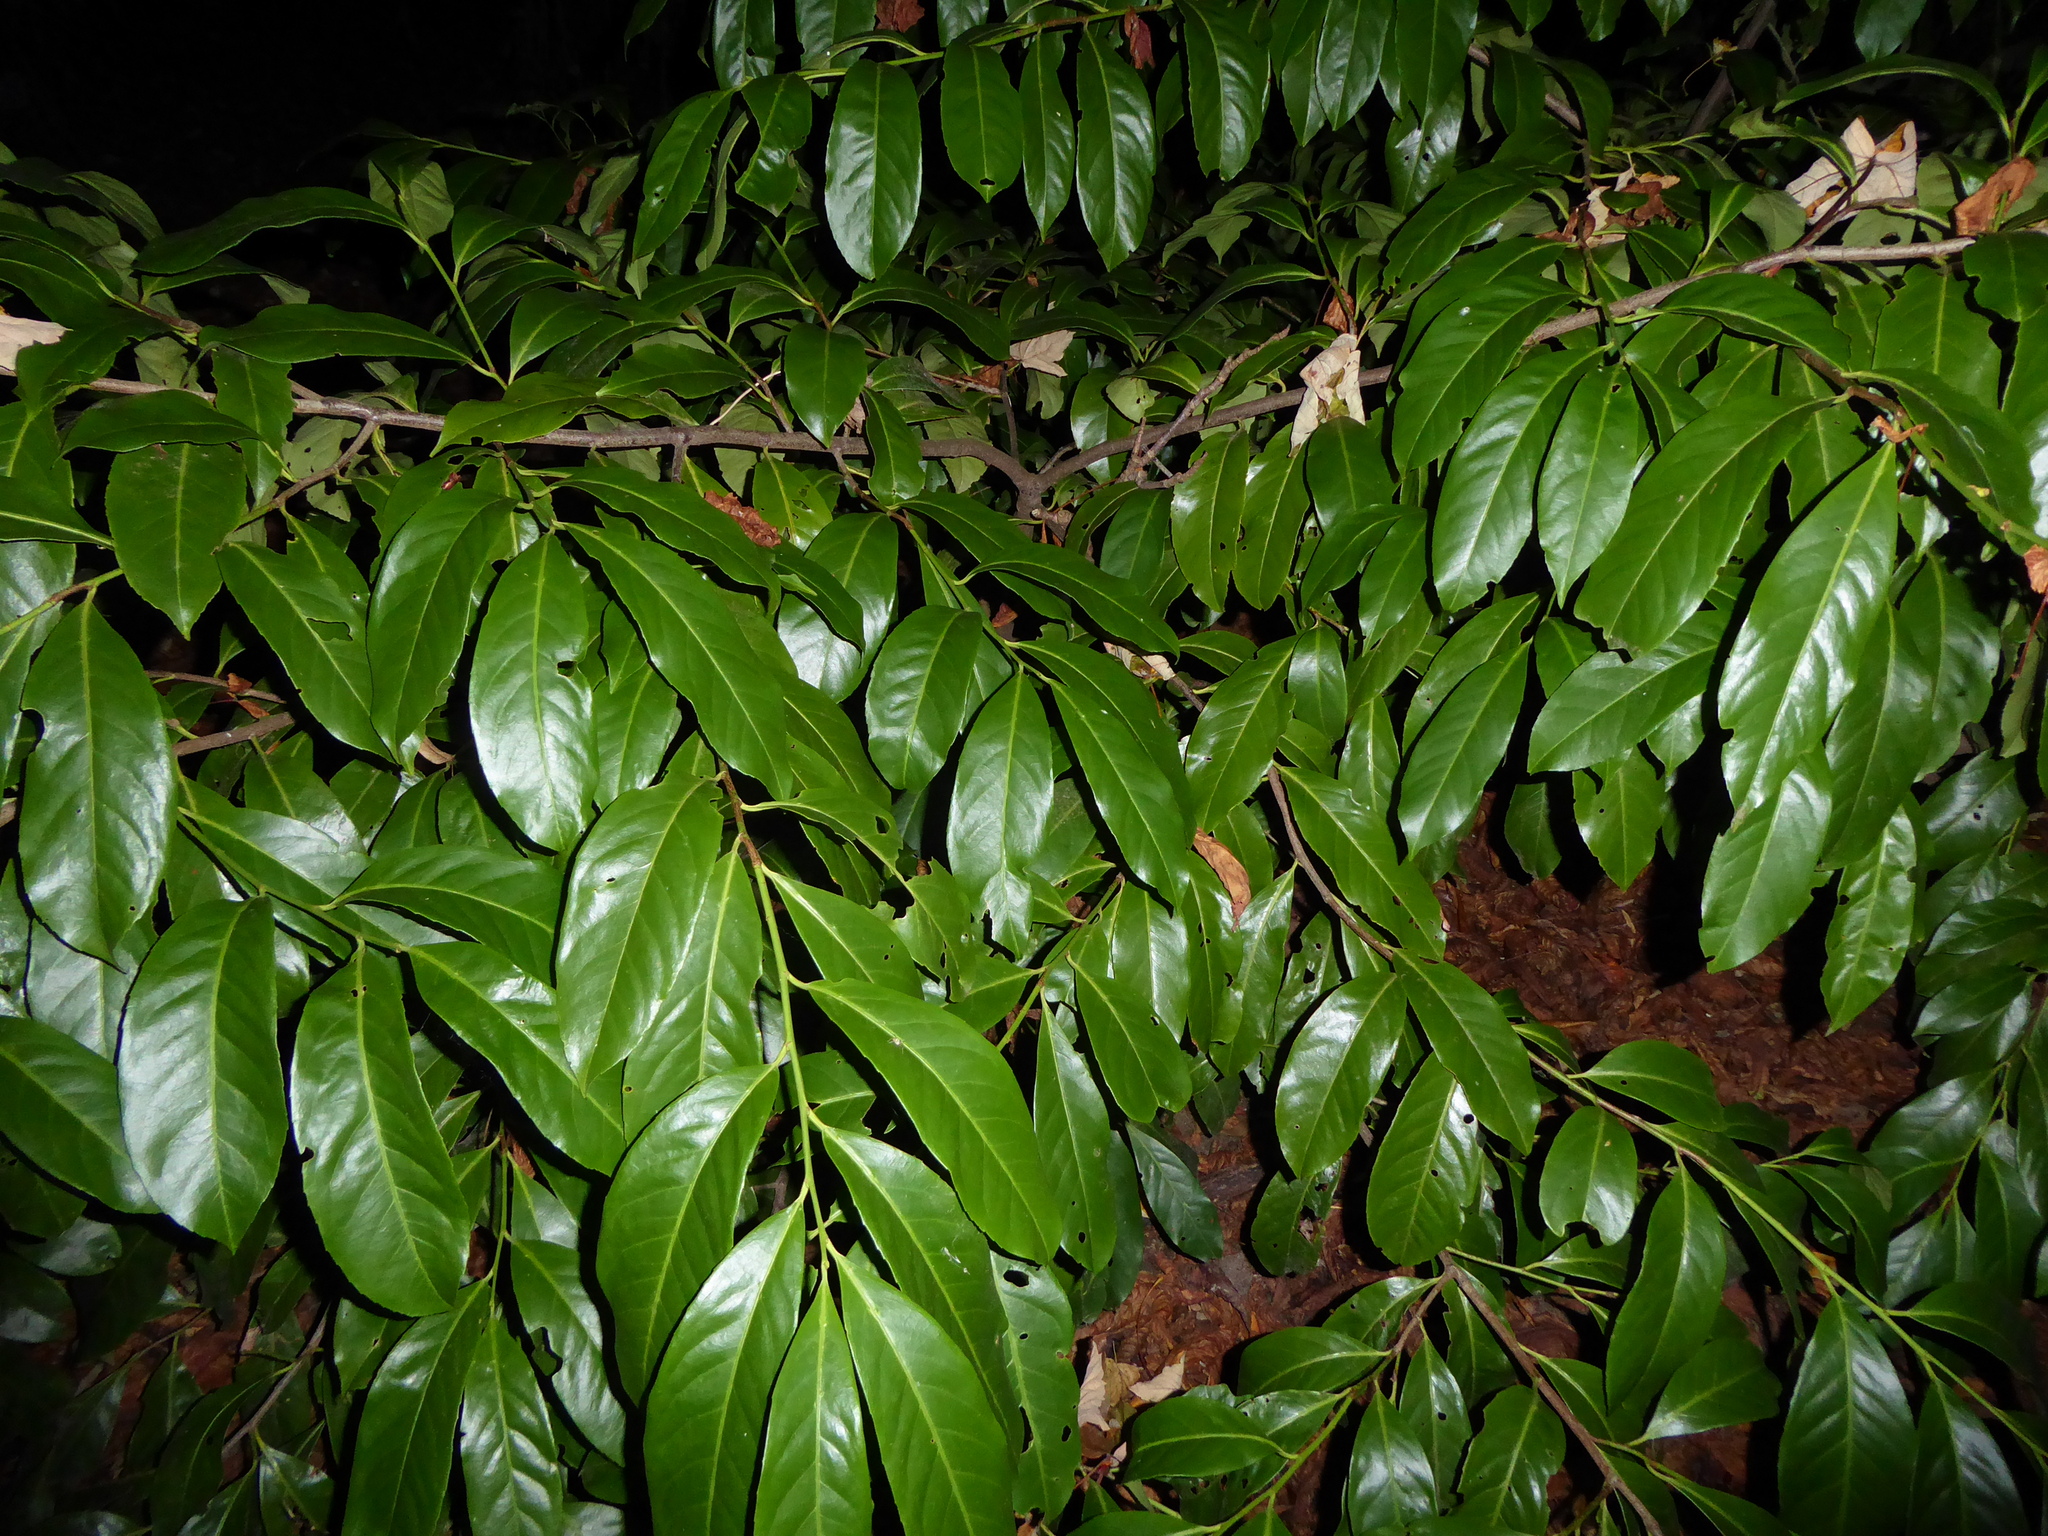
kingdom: Plantae
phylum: Tracheophyta
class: Magnoliopsida
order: Rosales
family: Rosaceae
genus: Prunus
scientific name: Prunus laurocerasus
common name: Cherry laurel
